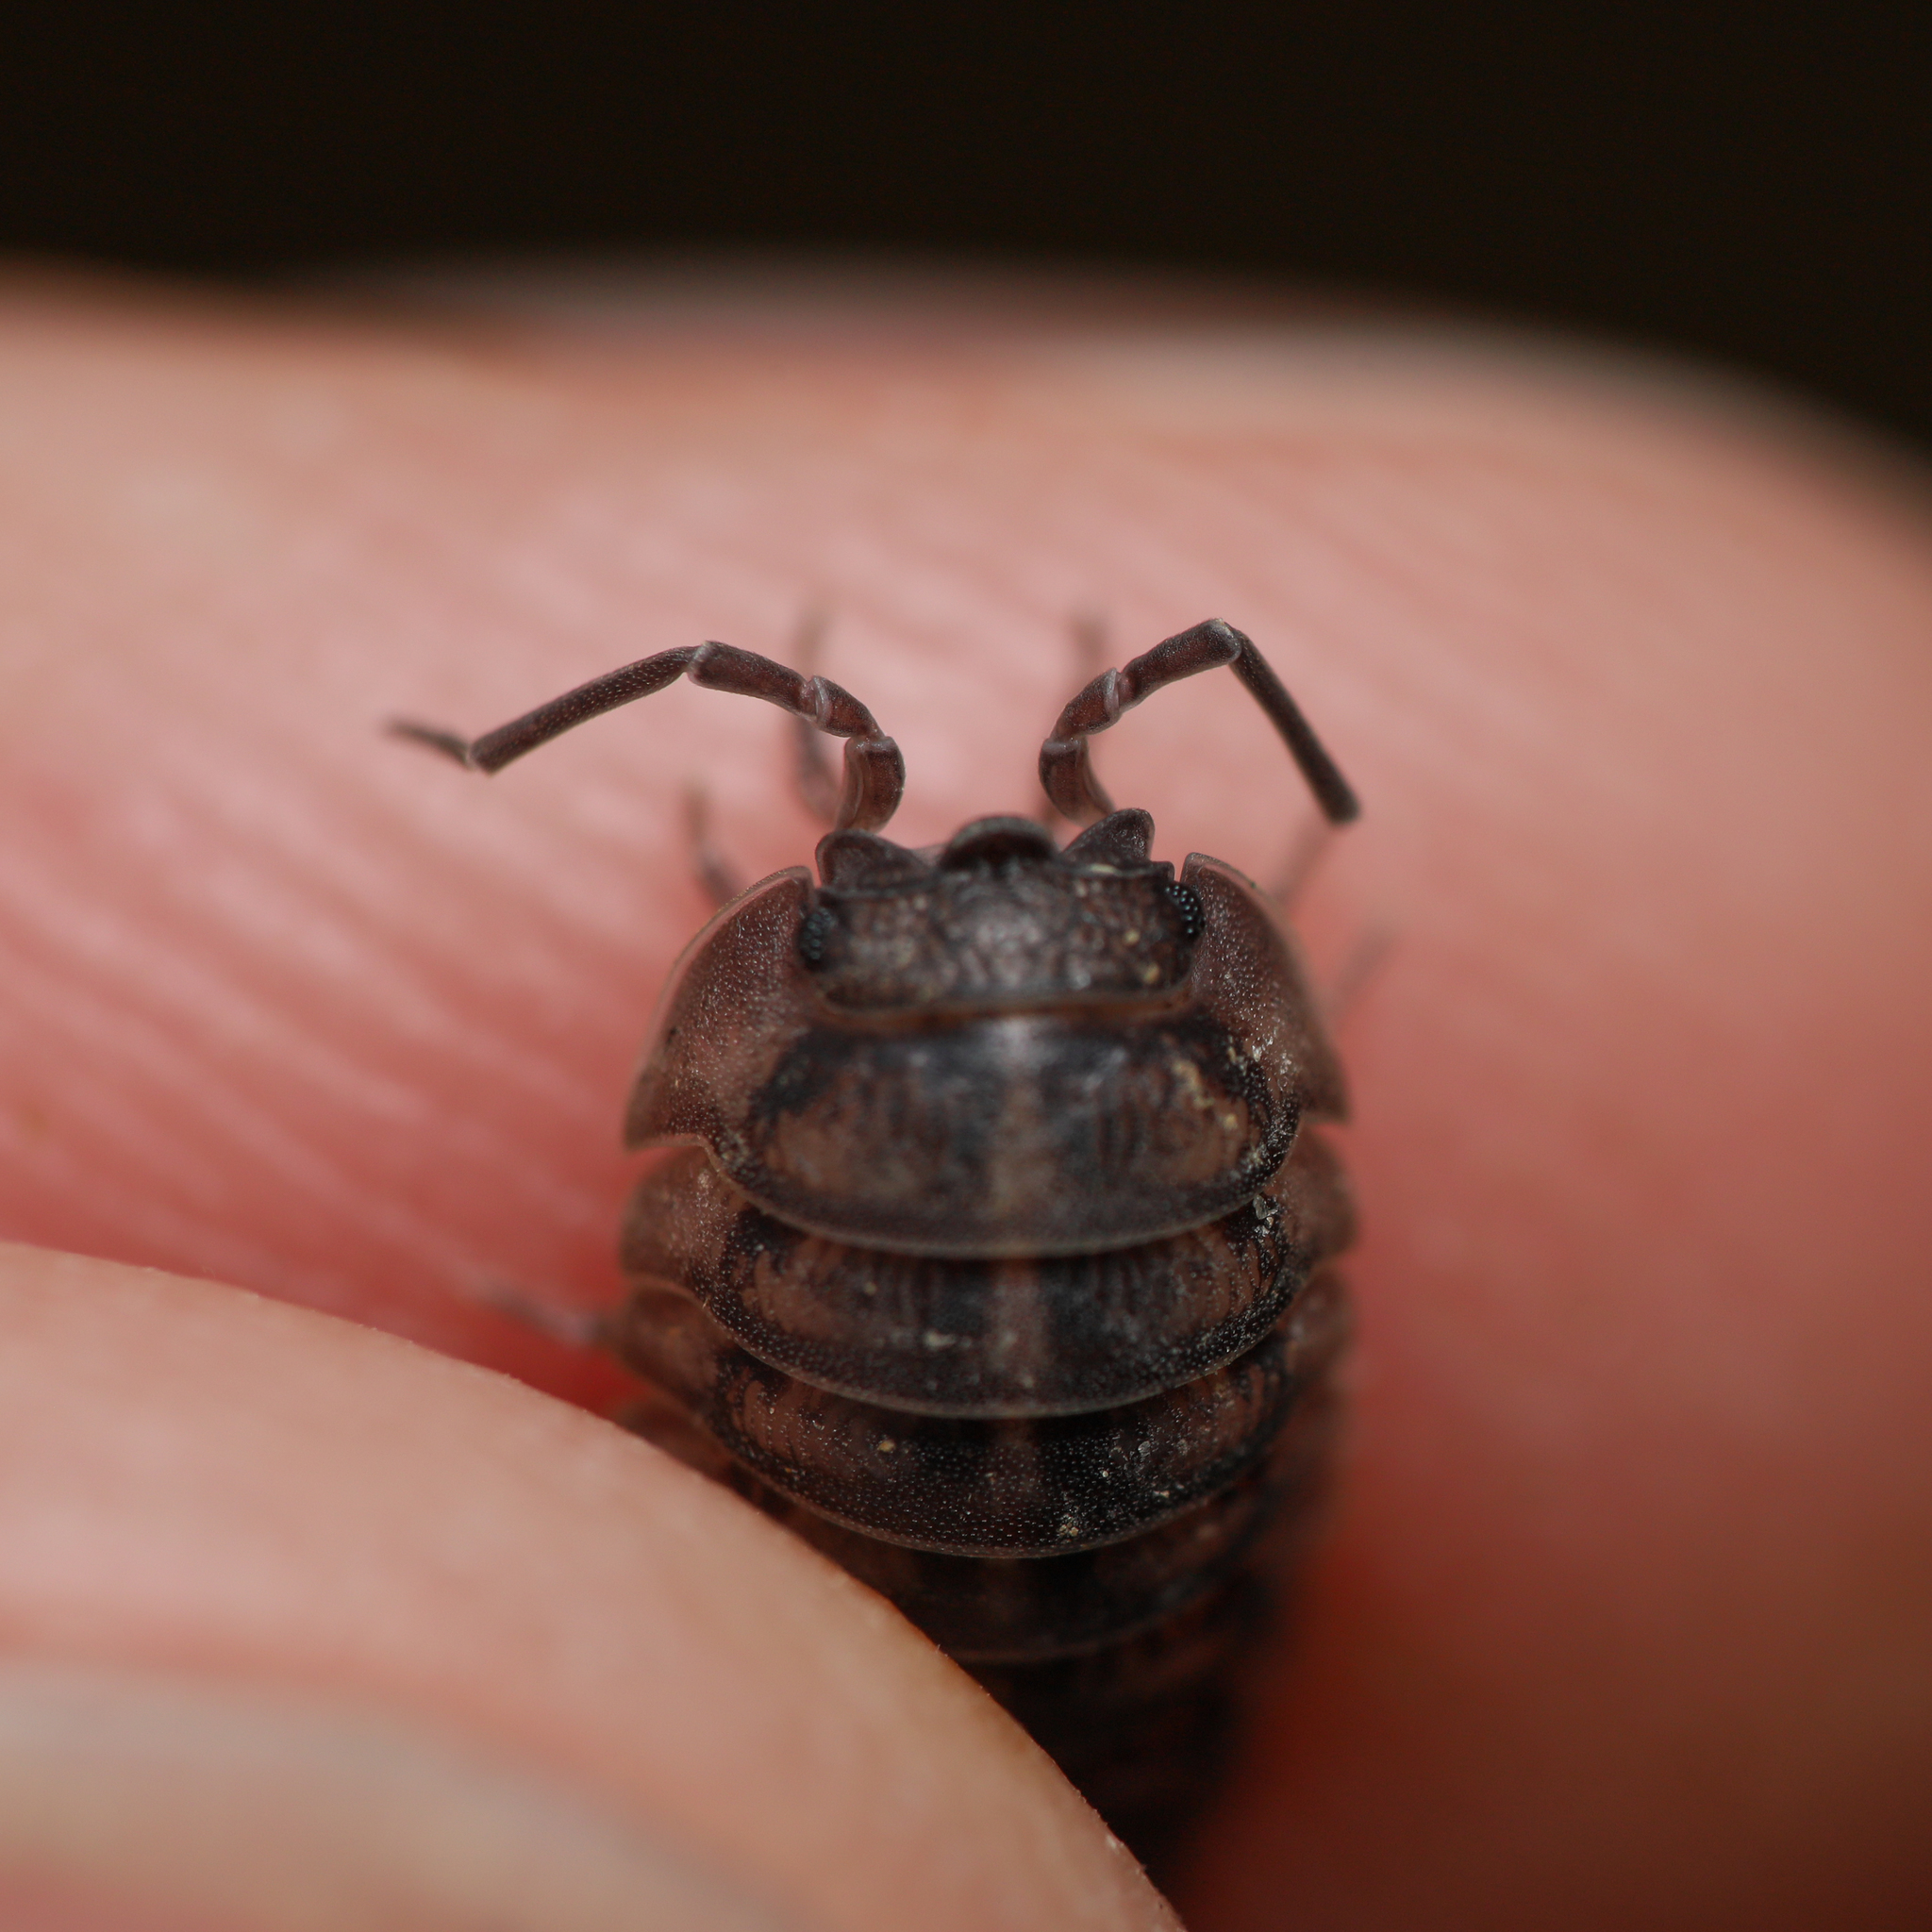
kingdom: Animalia
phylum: Arthropoda
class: Malacostraca
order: Isopoda
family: Armadillidiidae
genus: Armadillidium
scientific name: Armadillidium nasatum
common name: Isopod
